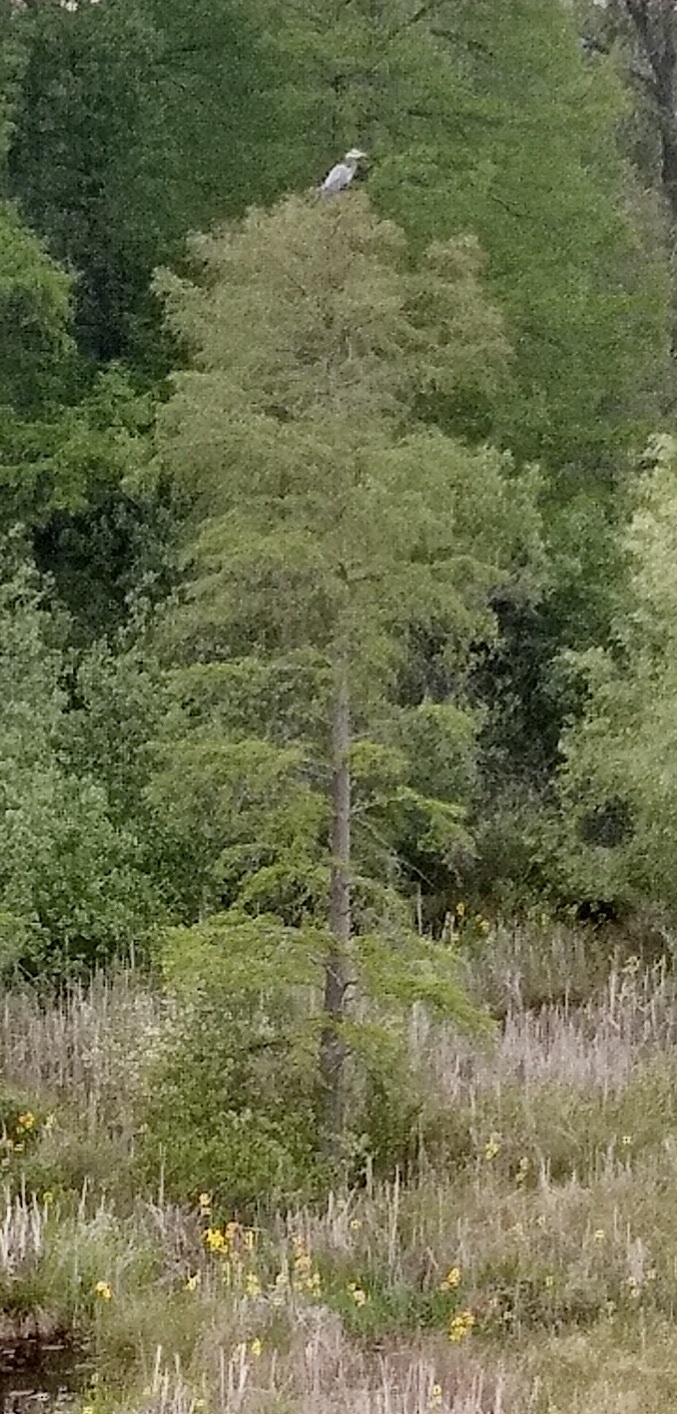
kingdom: Animalia
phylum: Chordata
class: Aves
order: Pelecaniformes
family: Ardeidae
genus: Ardea
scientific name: Ardea herodias
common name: Great blue heron
